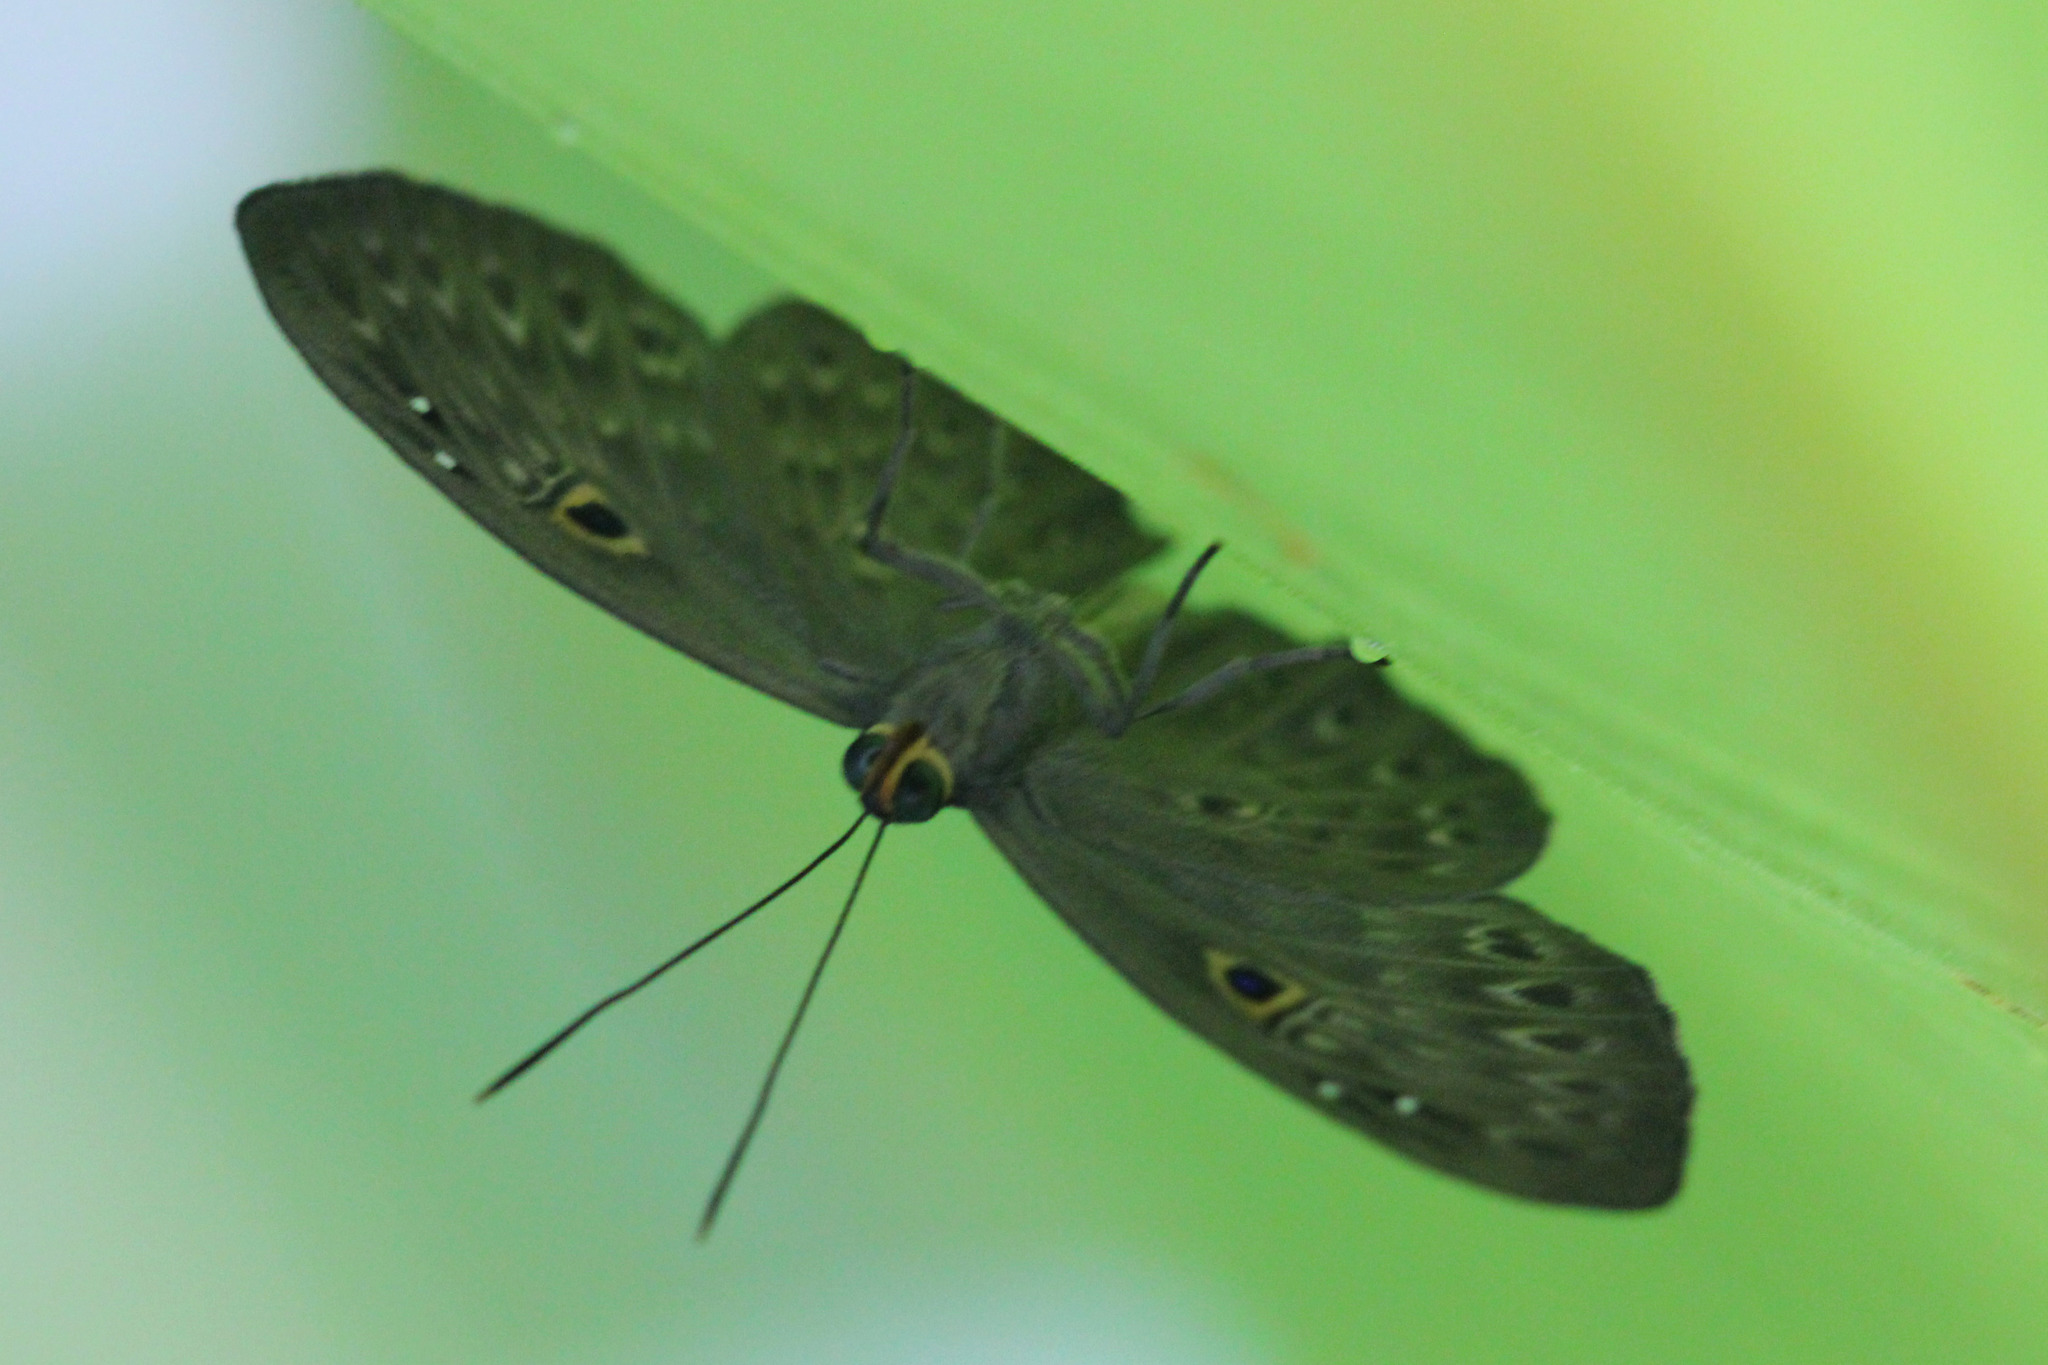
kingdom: Animalia
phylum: Cnidaria
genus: Eurybia
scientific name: Eurybia dardus
